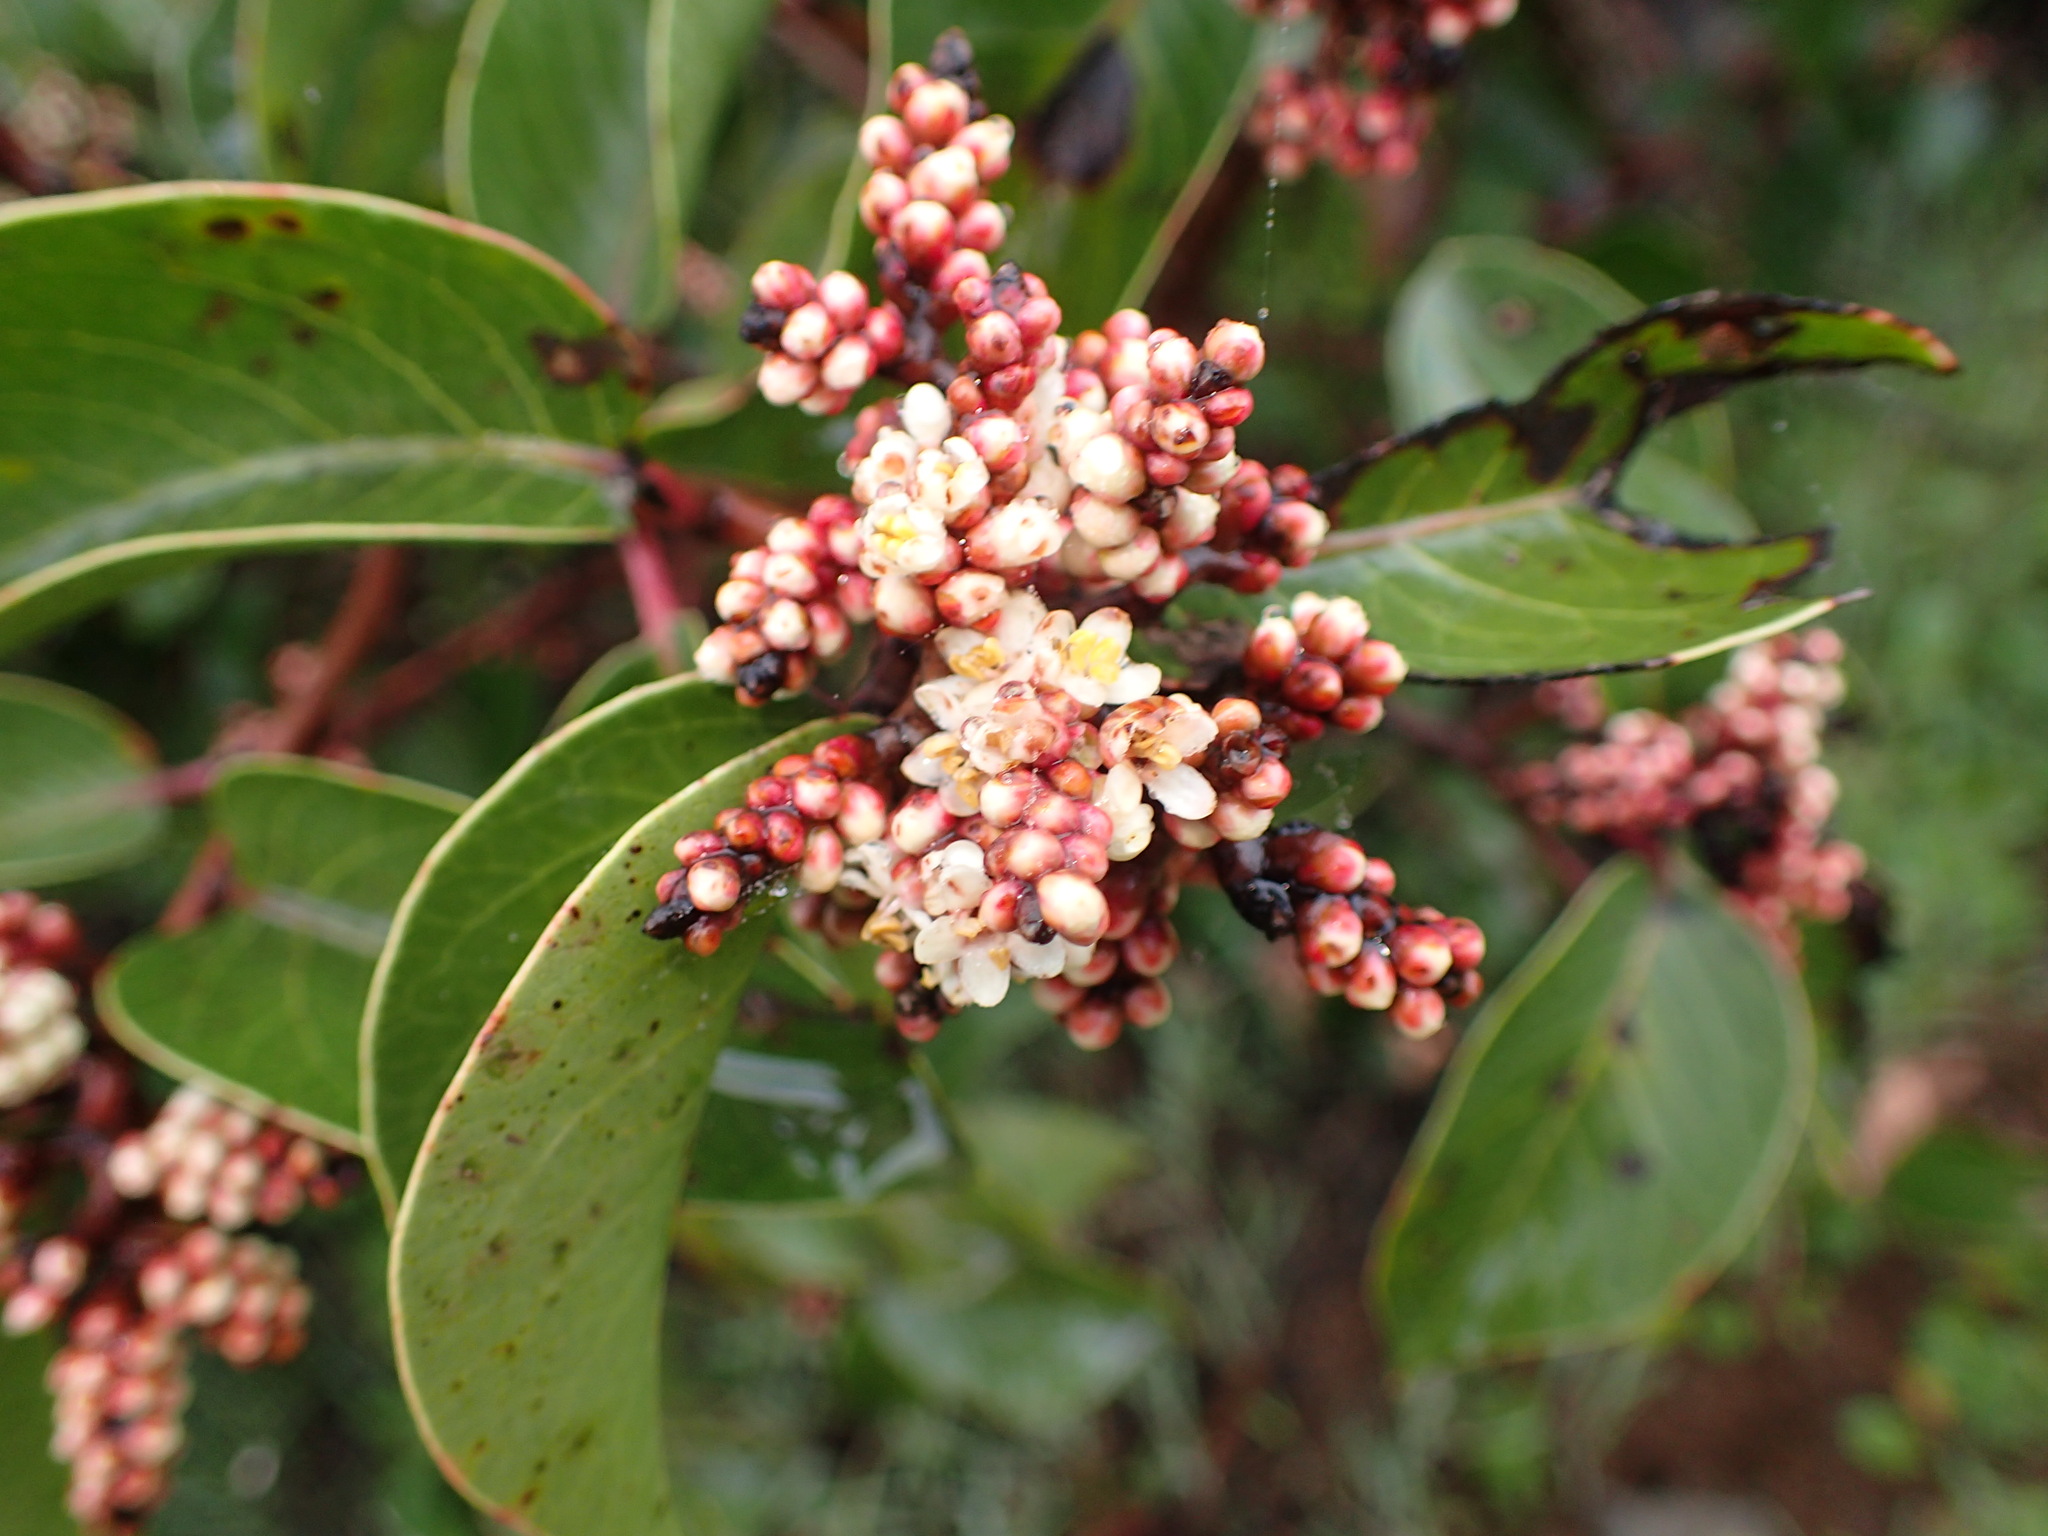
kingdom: Plantae
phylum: Tracheophyta
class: Magnoliopsida
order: Sapindales
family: Anacardiaceae
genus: Rhus
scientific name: Rhus ovata
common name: Sugar sumac
